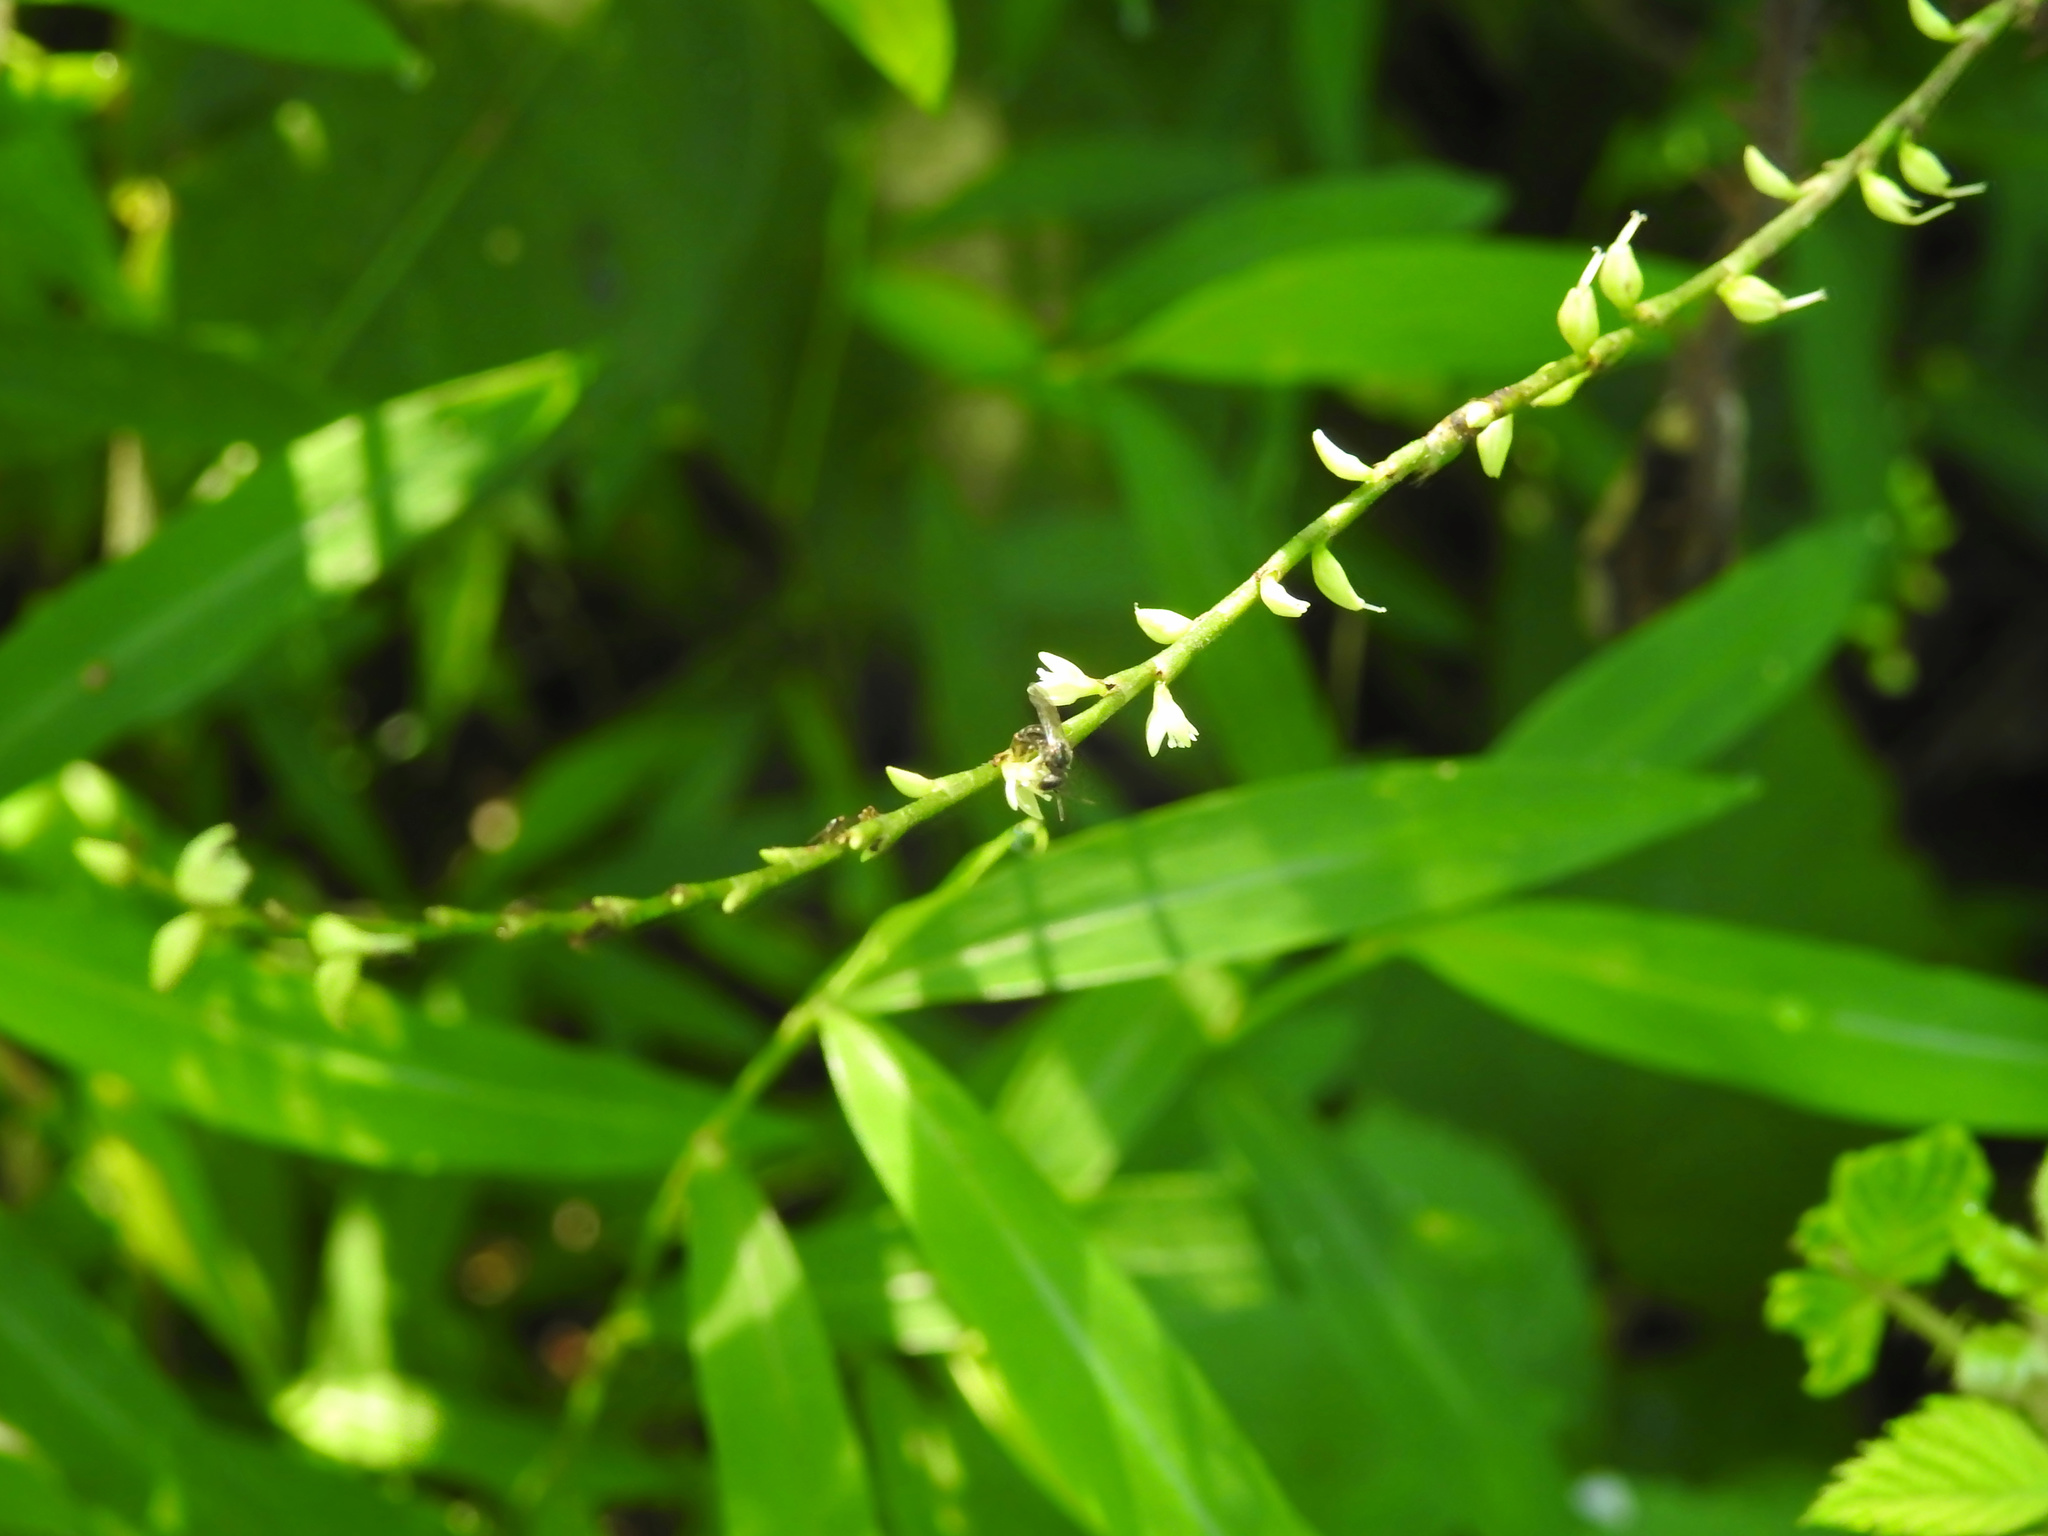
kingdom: Plantae
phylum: Tracheophyta
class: Magnoliopsida
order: Caryophyllales
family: Polygonaceae
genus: Persicaria
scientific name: Persicaria virginiana
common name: Jumpseed
